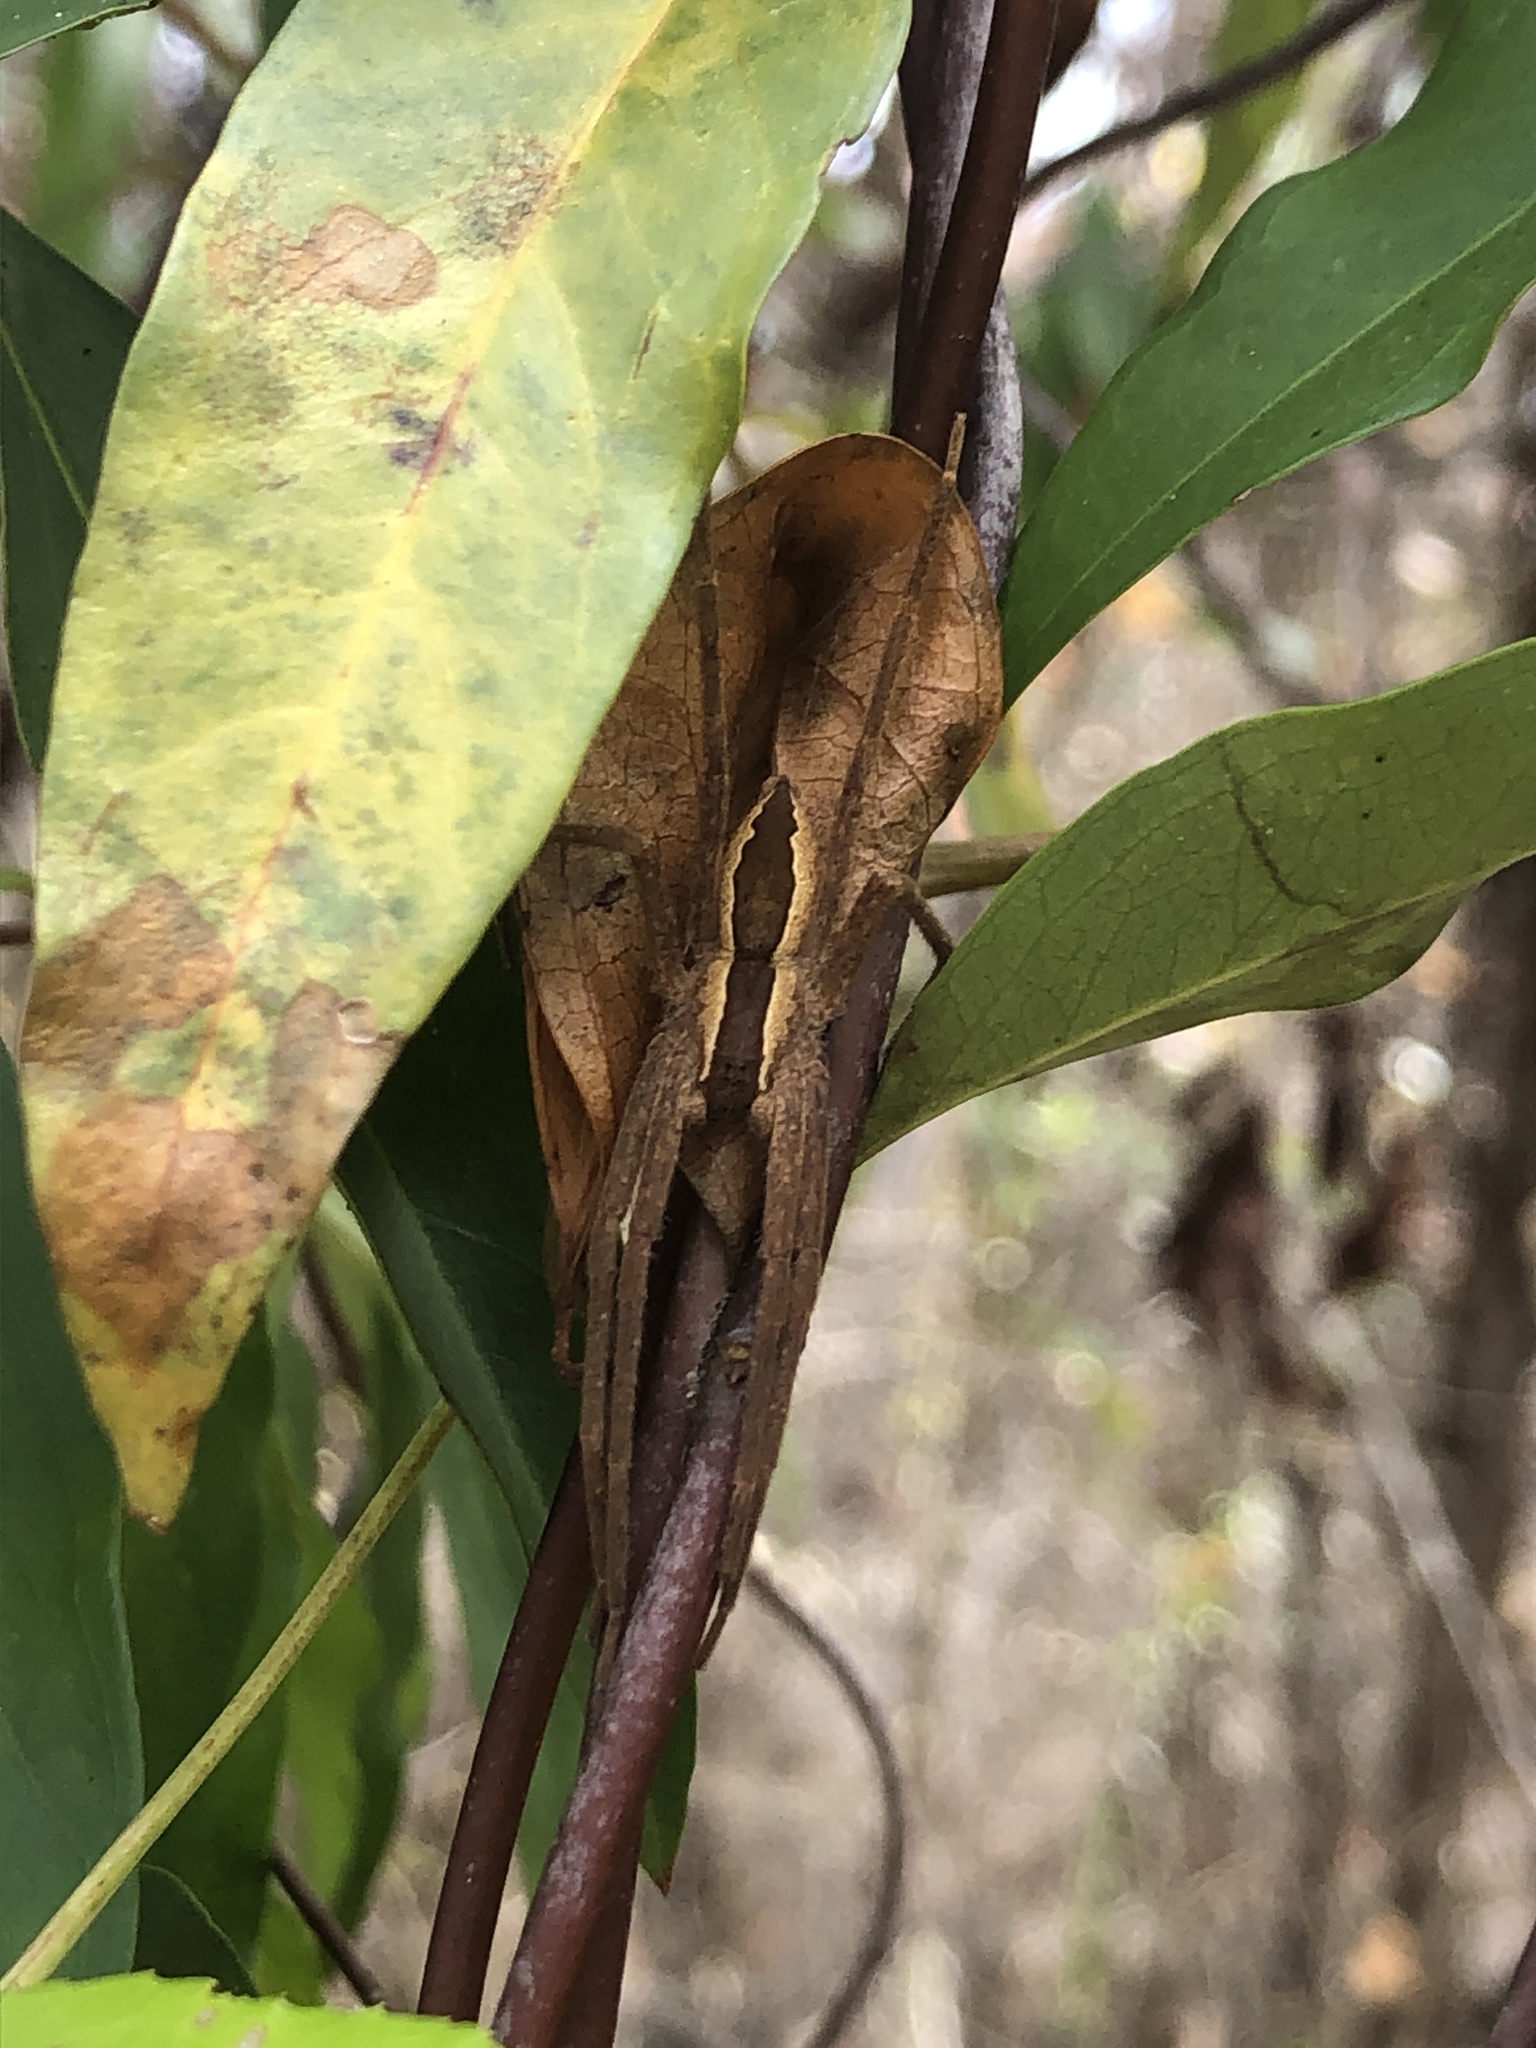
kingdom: Animalia
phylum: Arthropoda
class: Arachnida
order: Araneae
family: Pisauridae
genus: Pisaurina
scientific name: Pisaurina mira
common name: American nursery web spider
